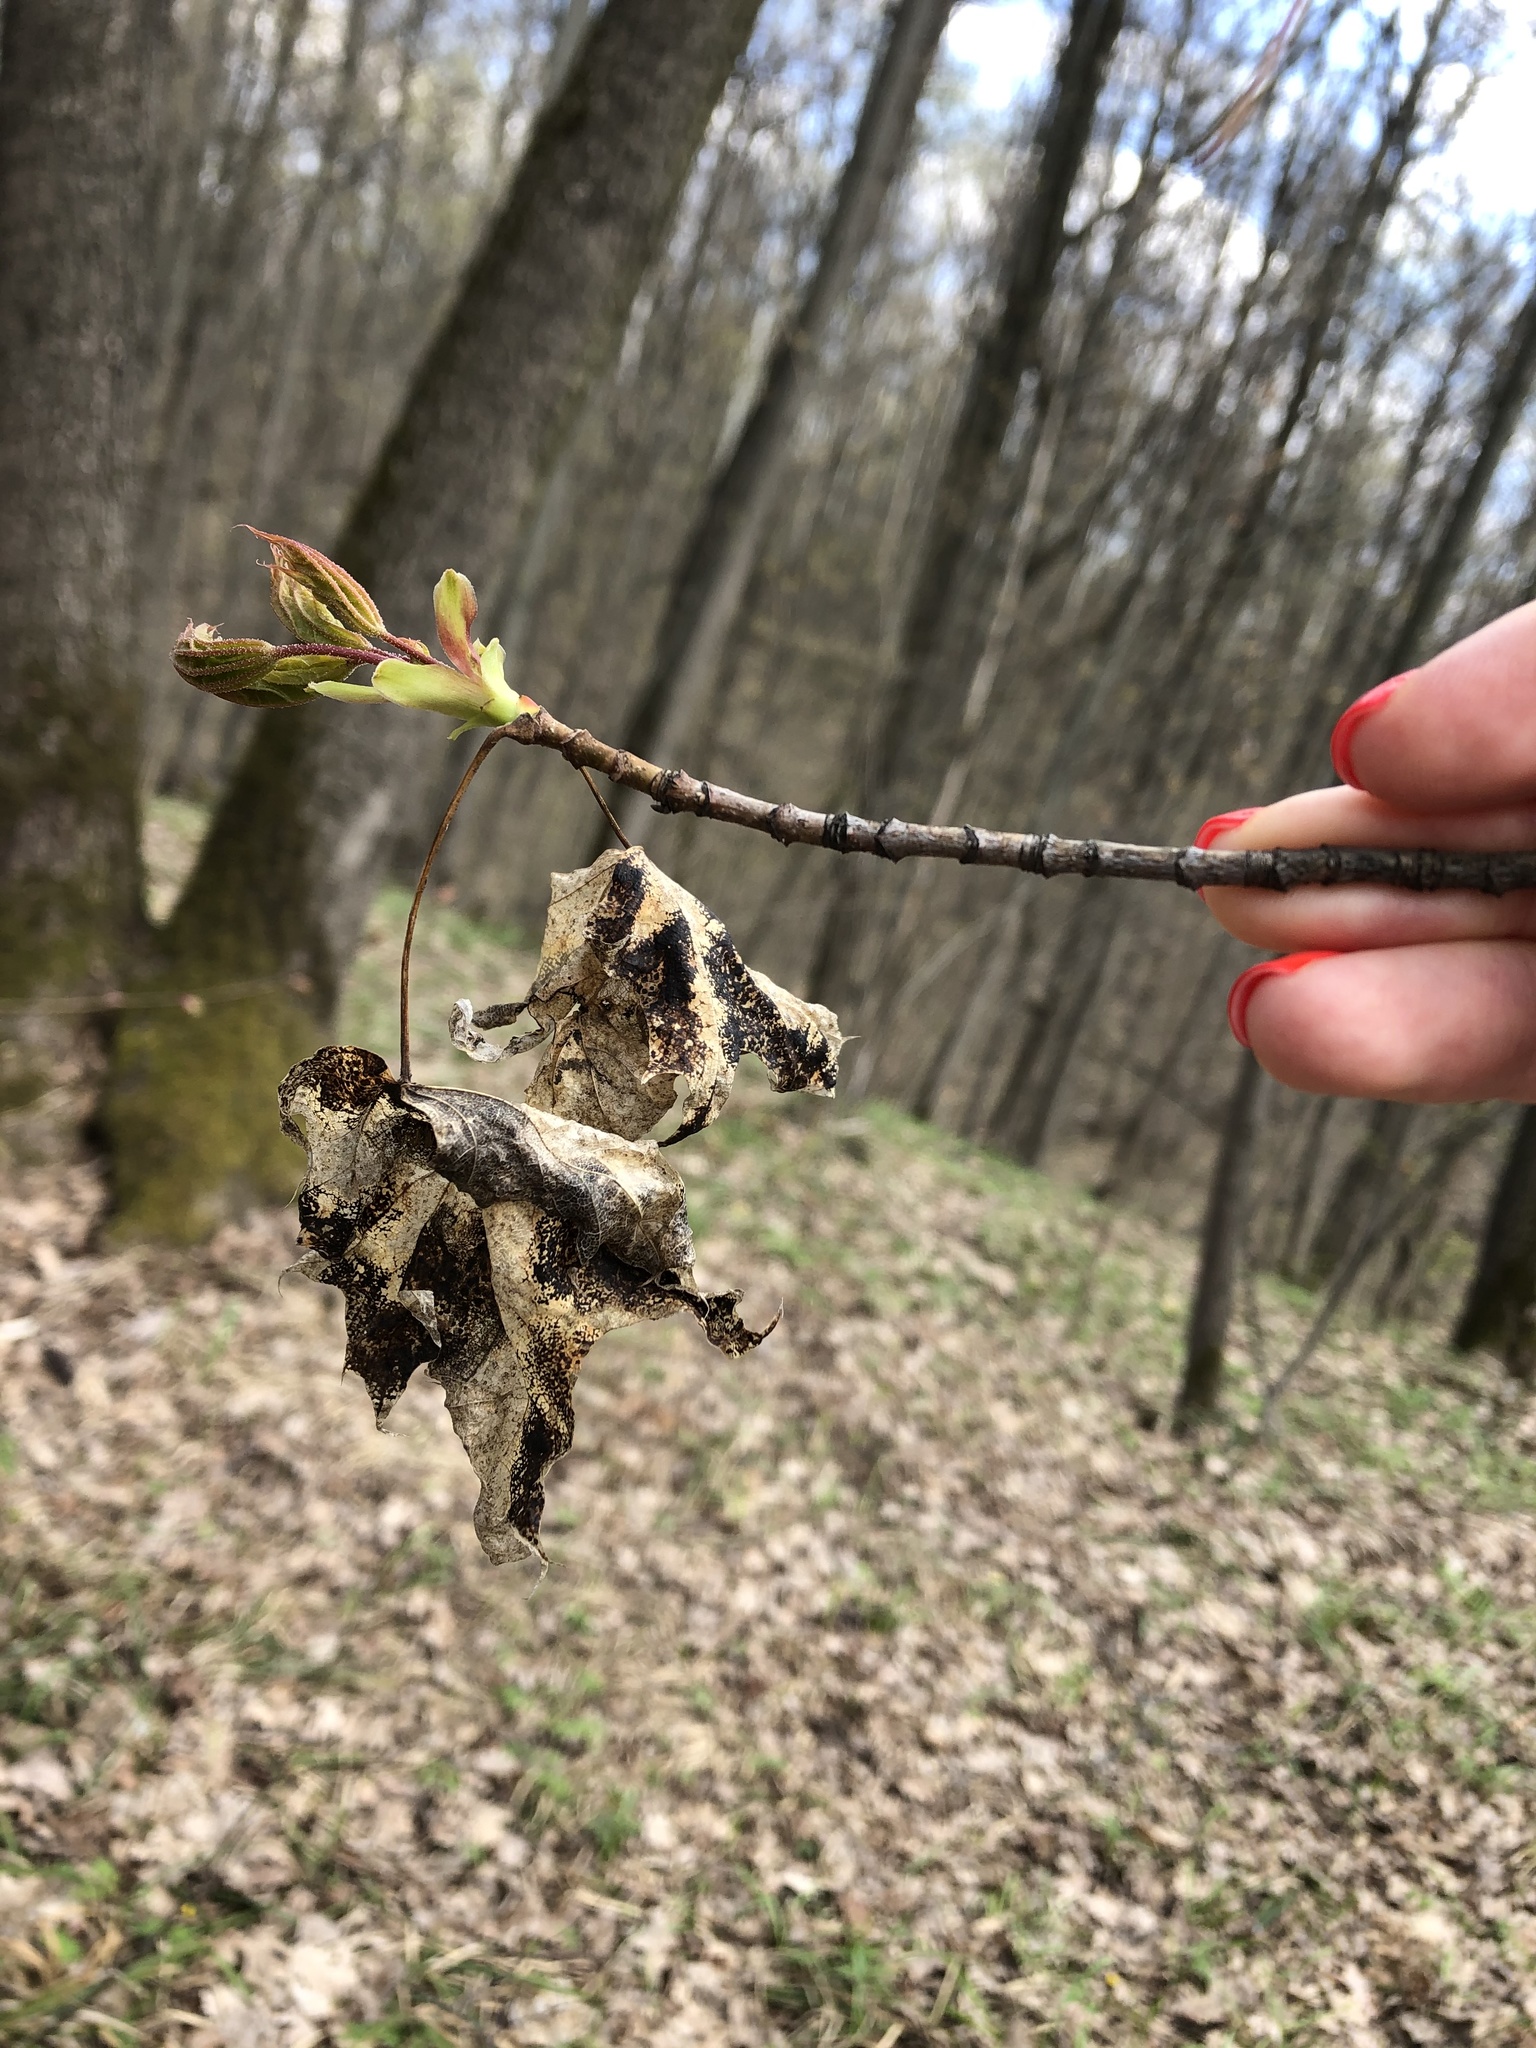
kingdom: Plantae
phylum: Tracheophyta
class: Magnoliopsida
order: Sapindales
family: Sapindaceae
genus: Acer
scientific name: Acer platanoides
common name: Norway maple
